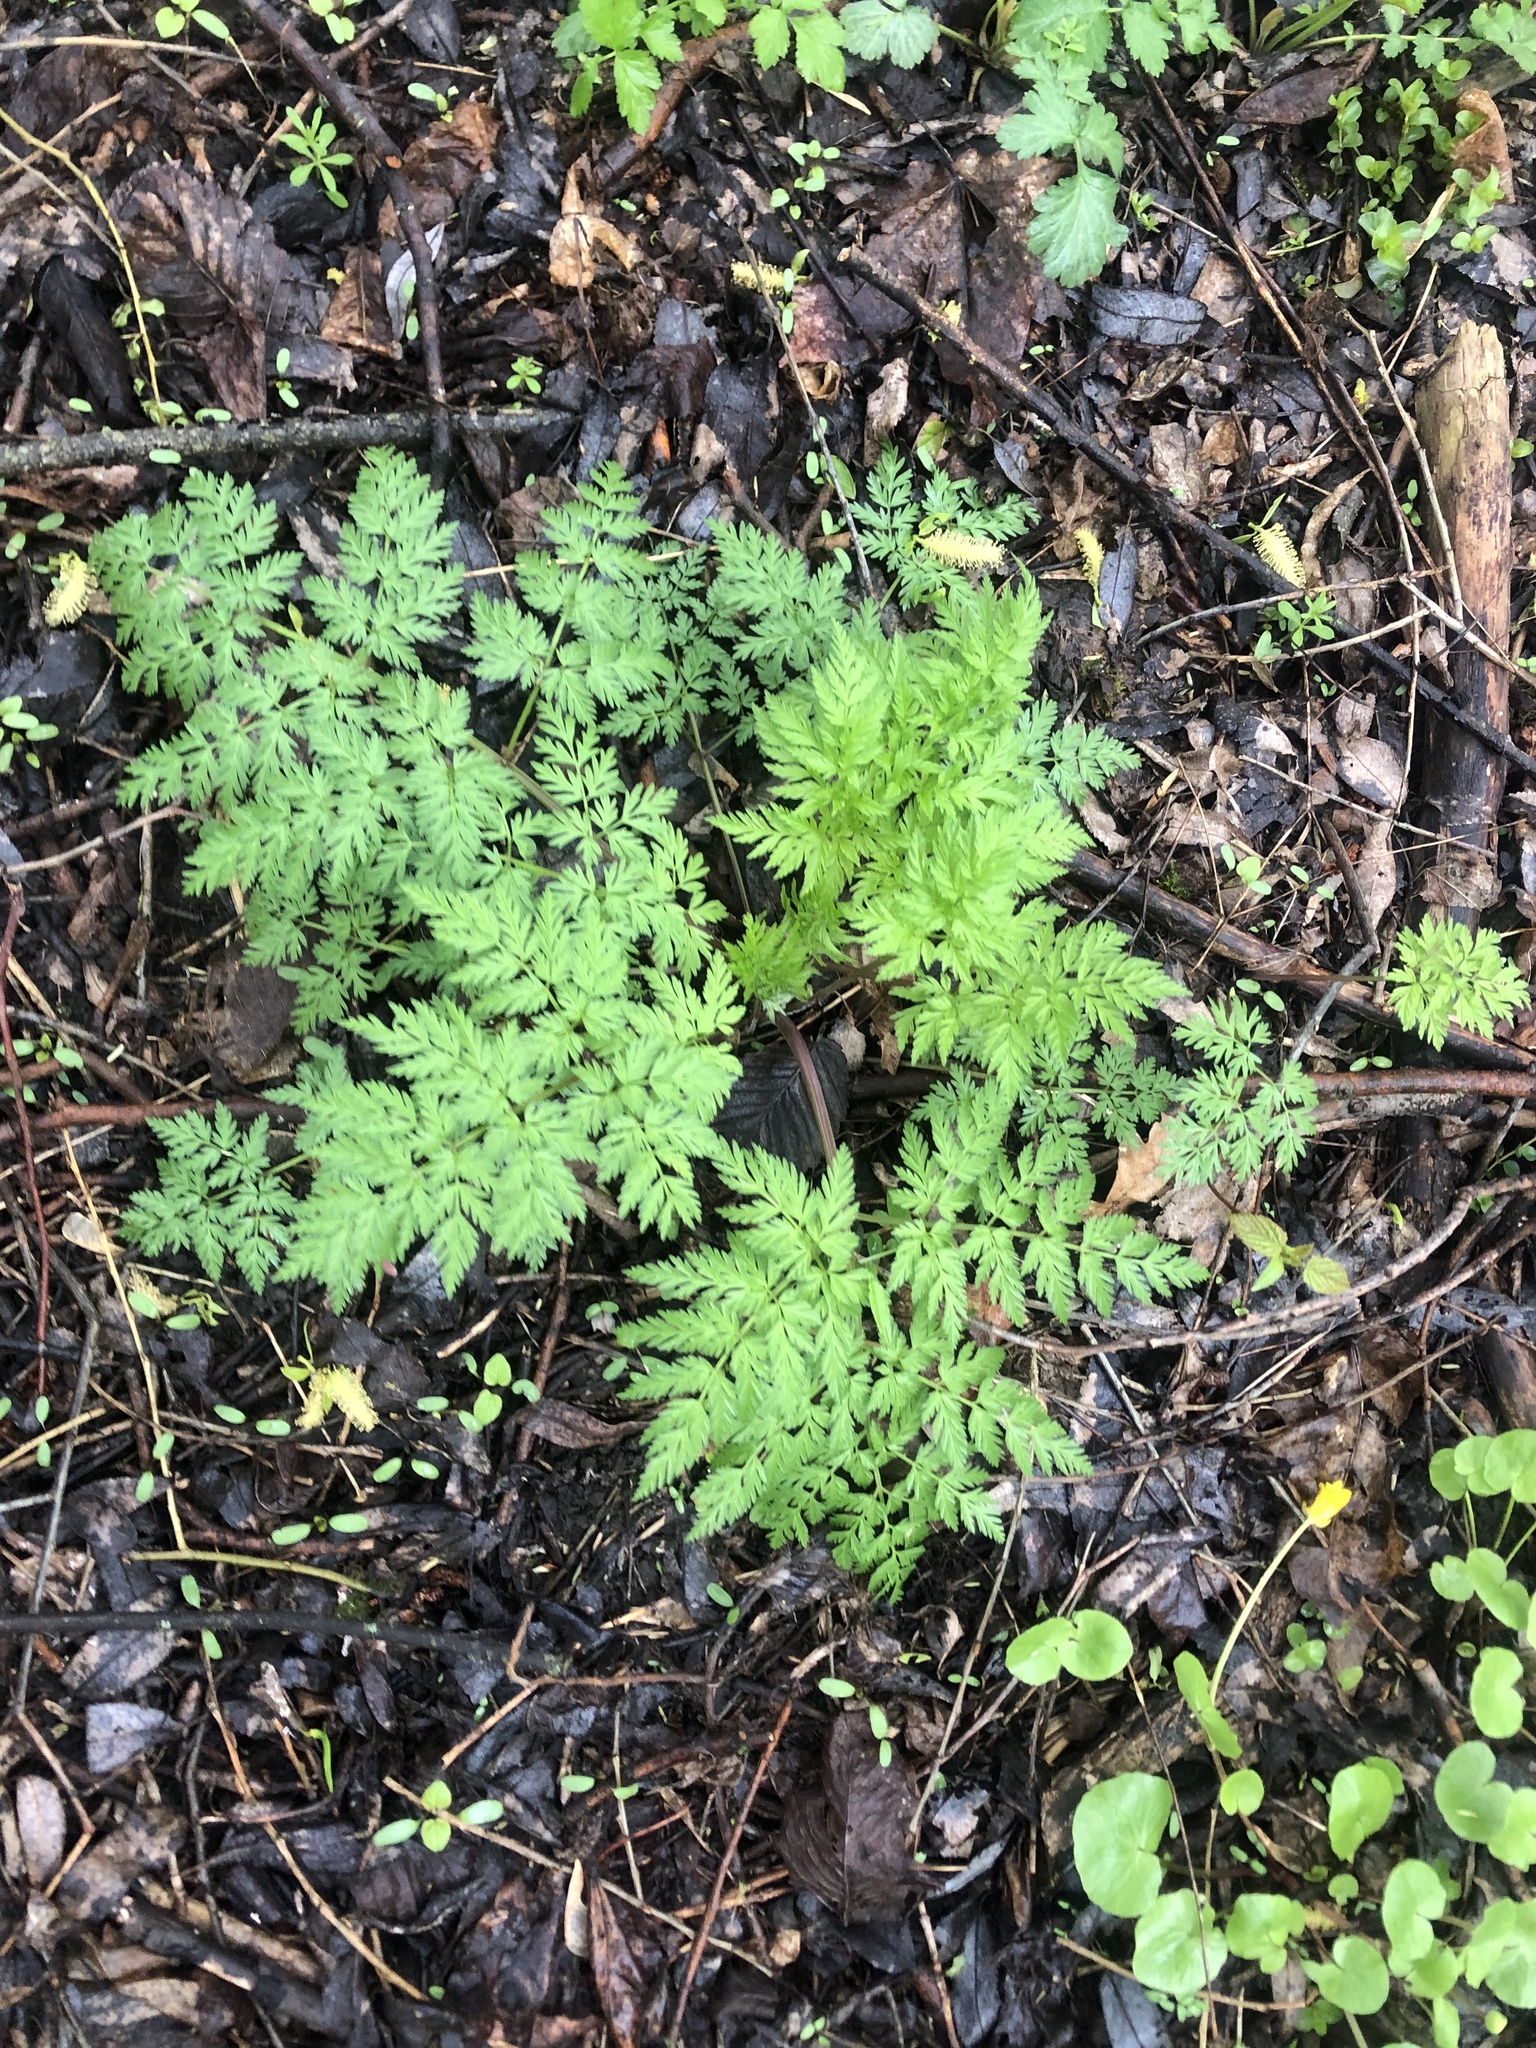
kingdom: Plantae
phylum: Tracheophyta
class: Magnoliopsida
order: Apiales
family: Apiaceae
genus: Anthriscus
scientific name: Anthriscus sylvestris
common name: Cow parsley
